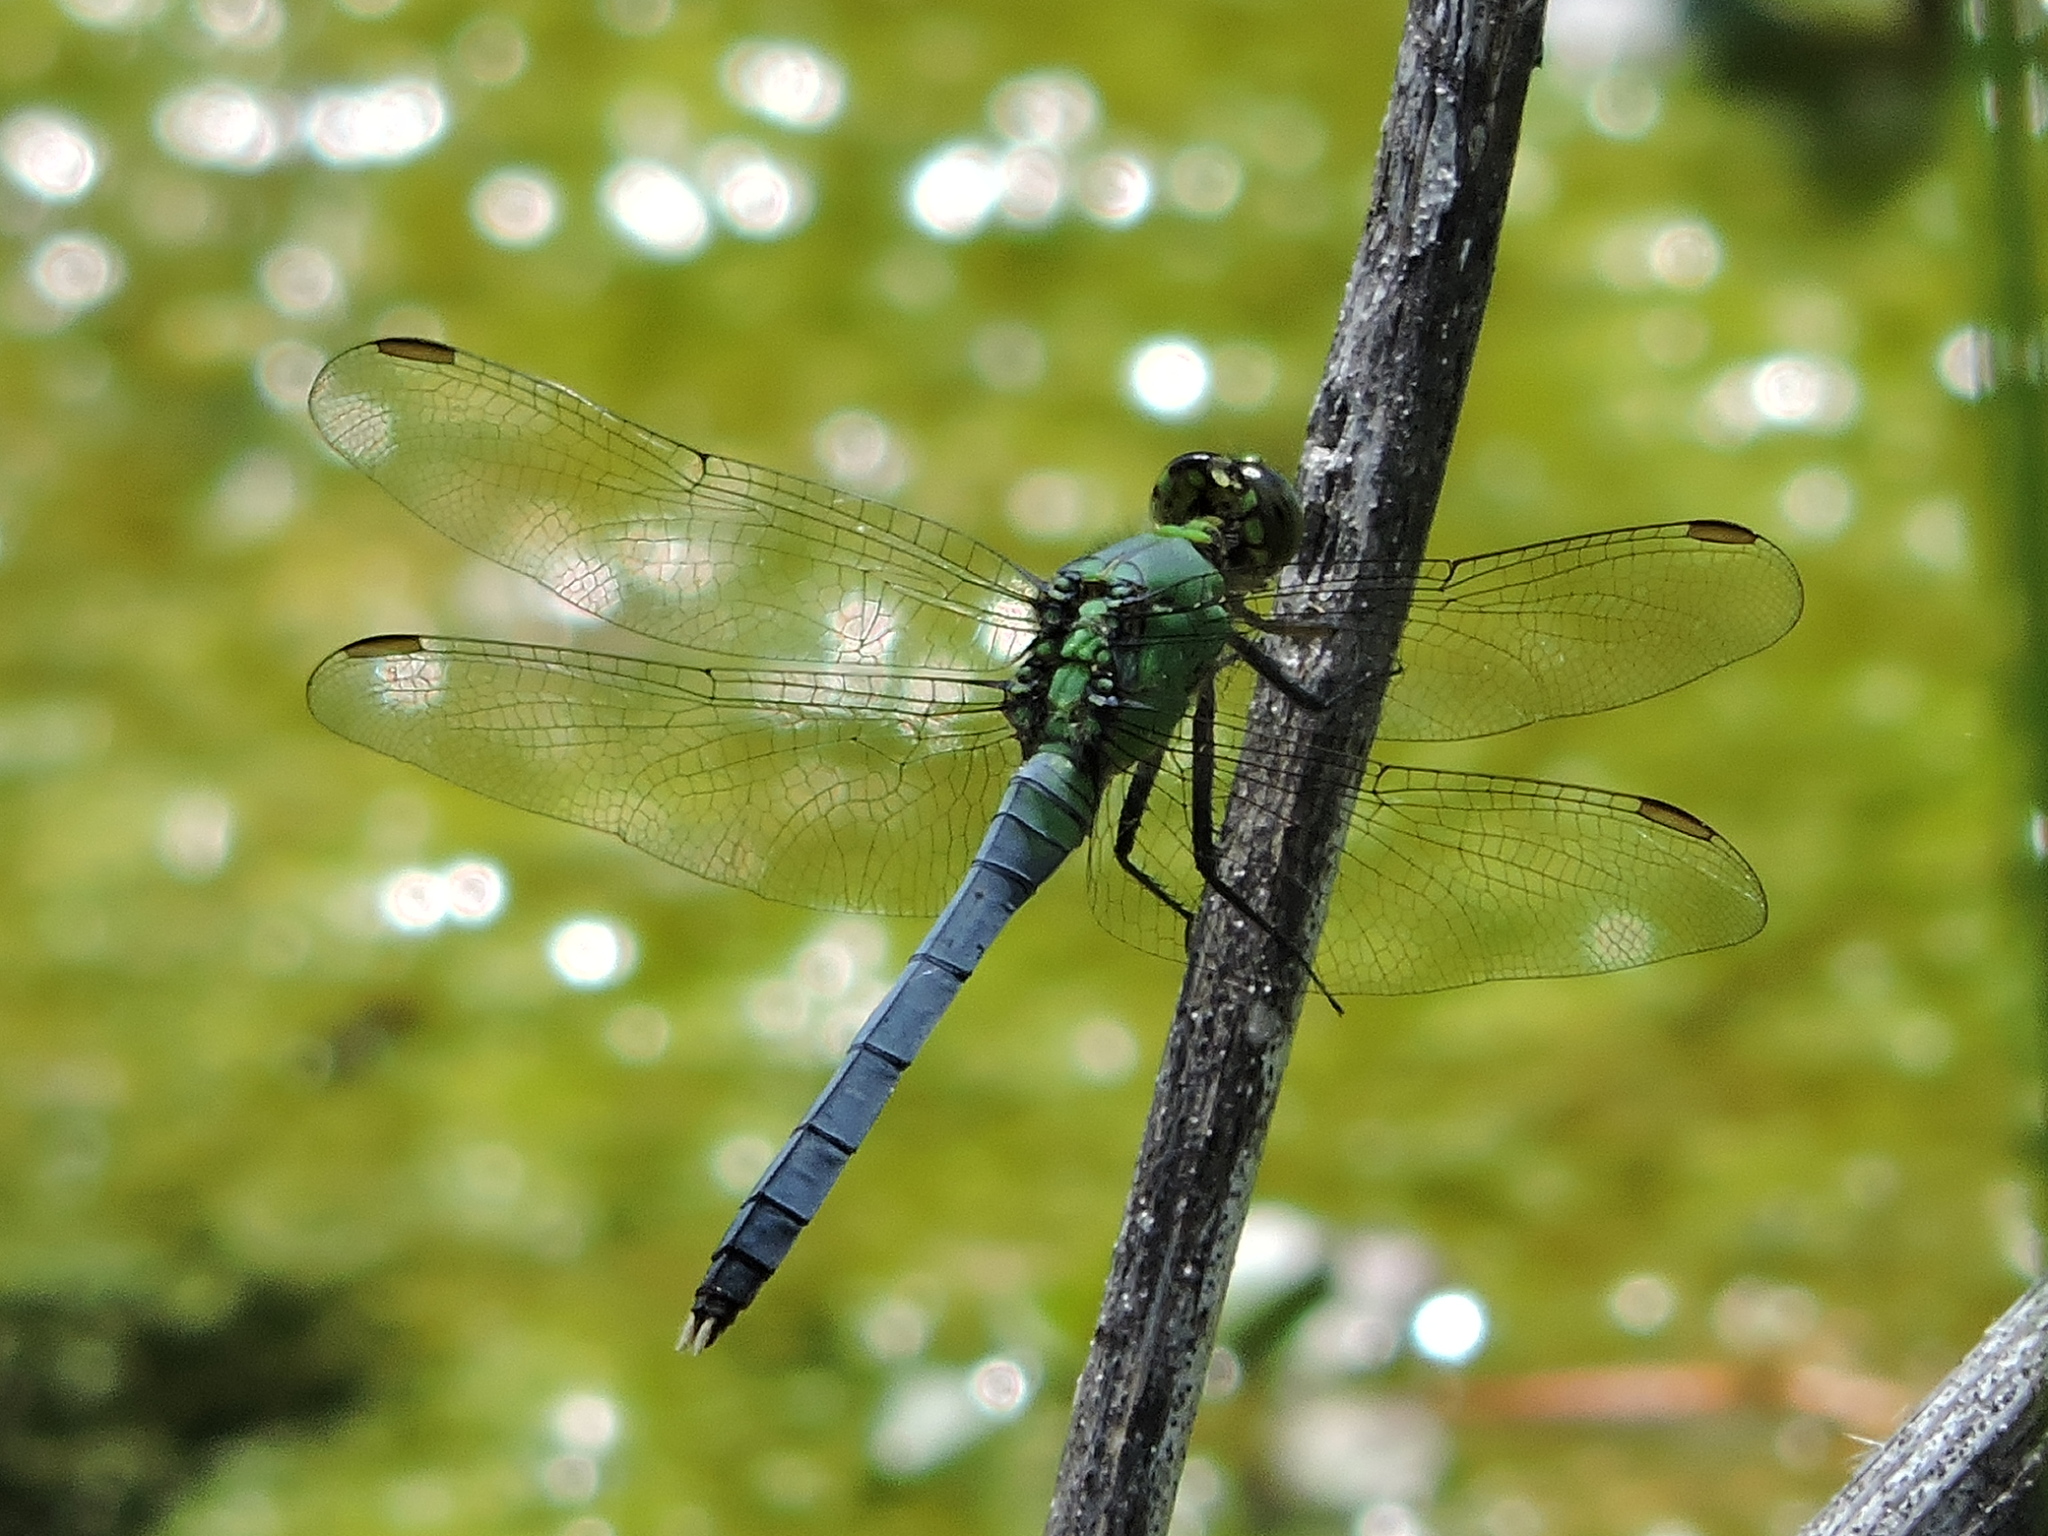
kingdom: Animalia
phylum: Arthropoda
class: Insecta
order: Odonata
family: Libellulidae
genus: Erythemis
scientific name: Erythemis simplicicollis
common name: Eastern pondhawk
